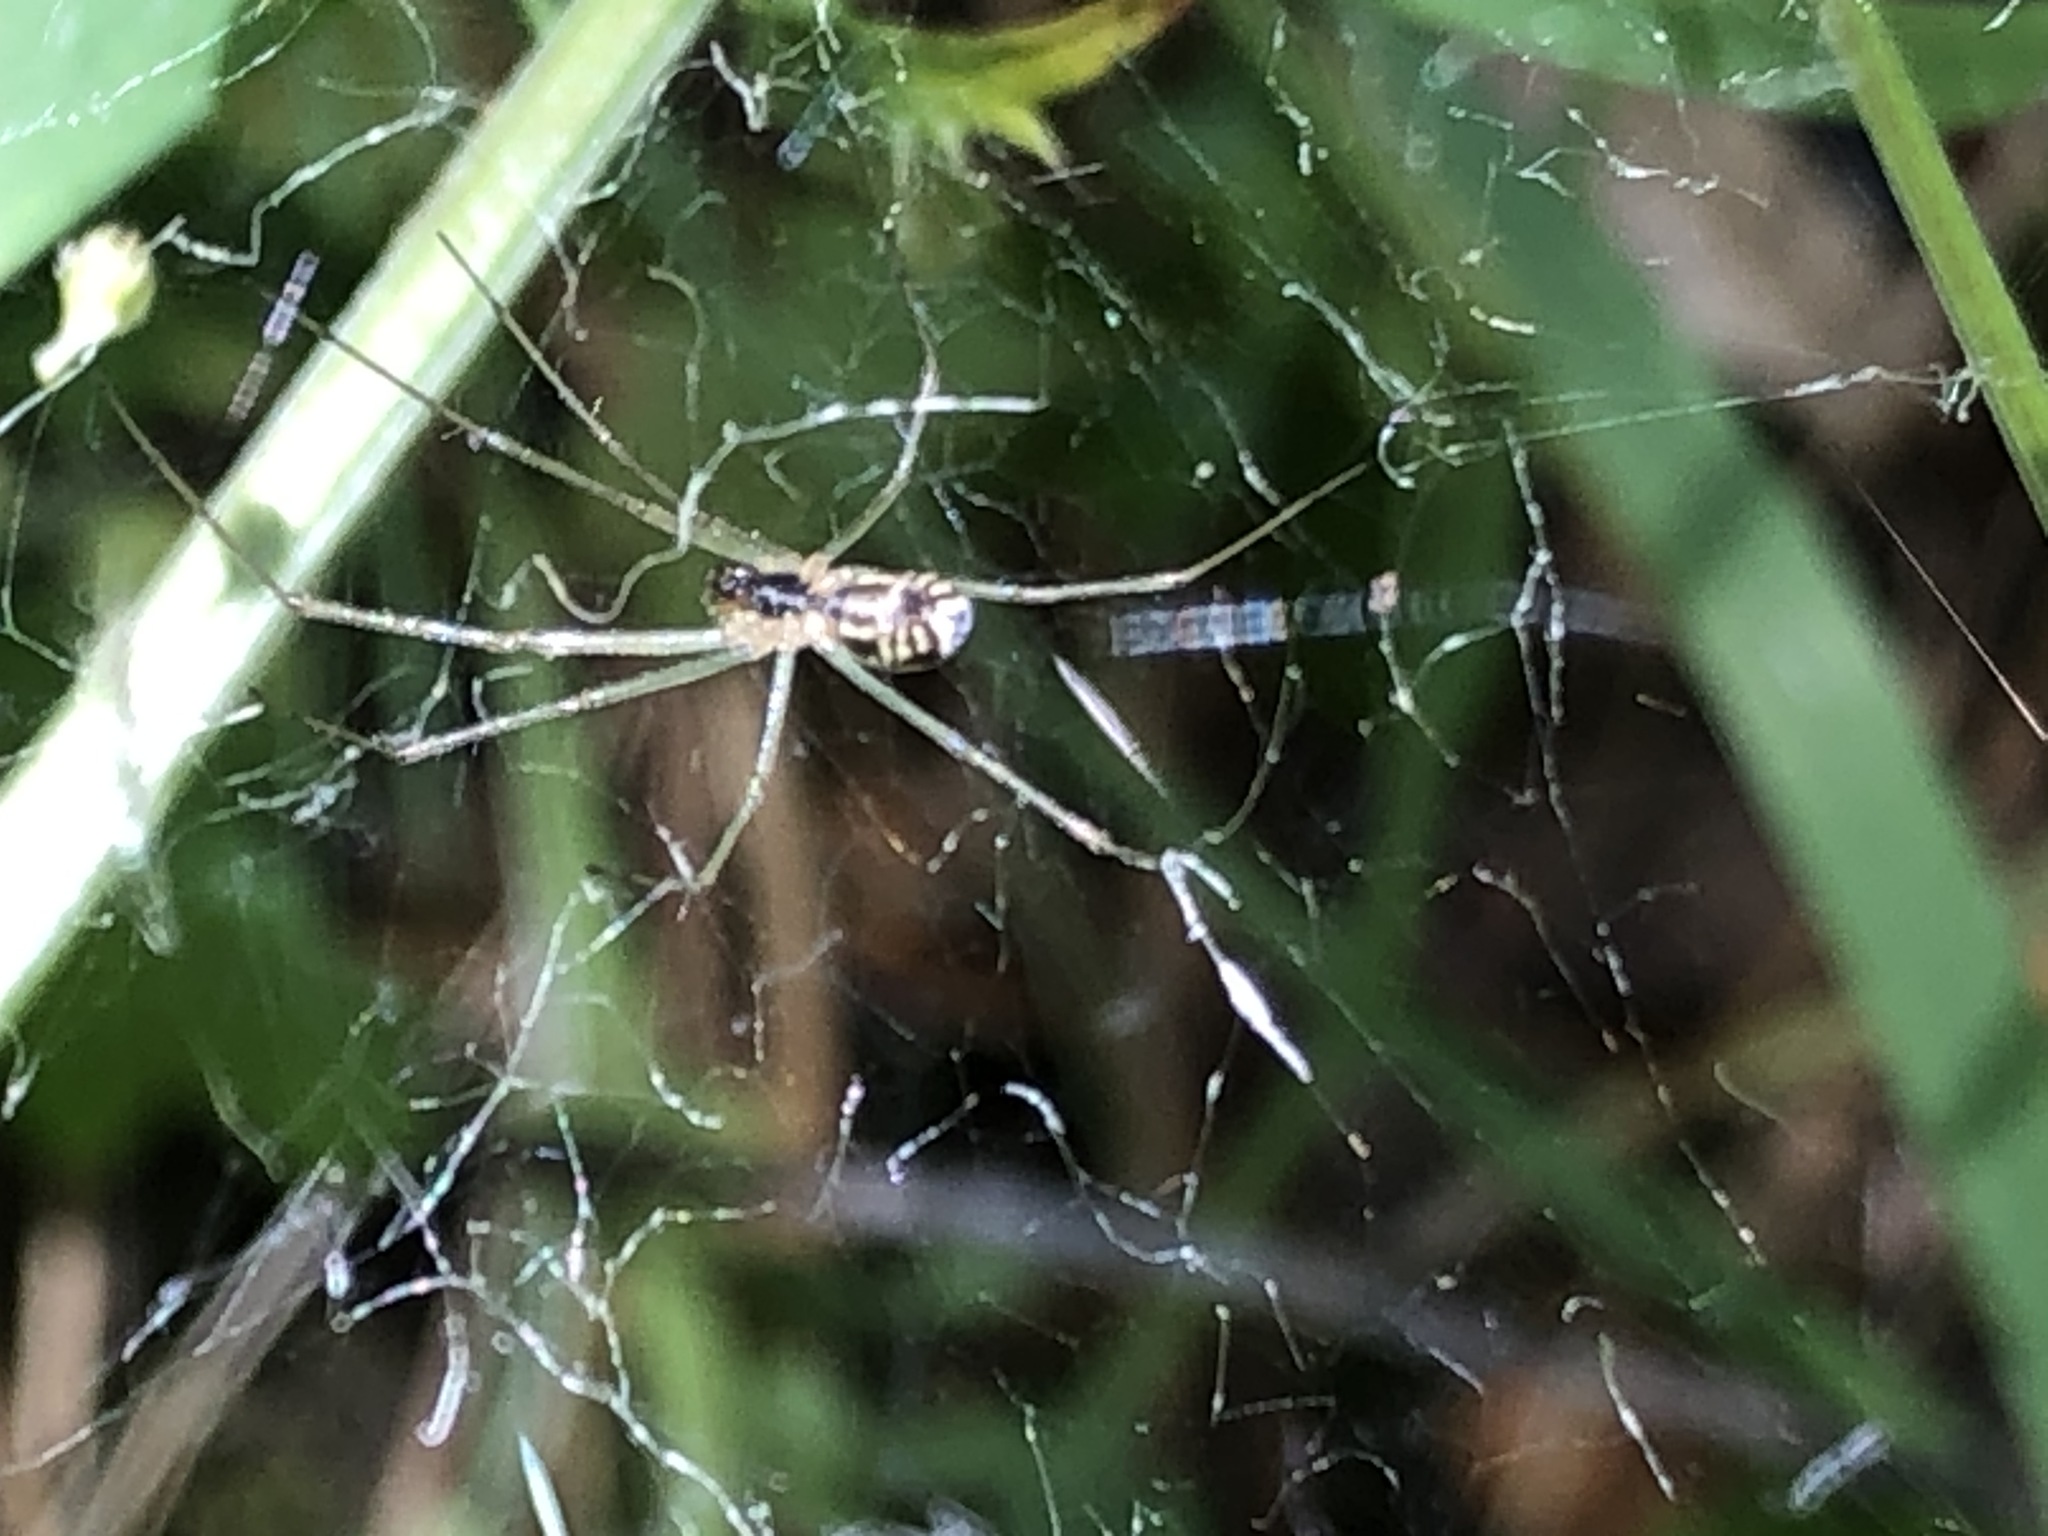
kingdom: Animalia
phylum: Arthropoda
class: Arachnida
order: Araneae
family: Linyphiidae
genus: Neriene
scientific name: Neriene litigiosa
